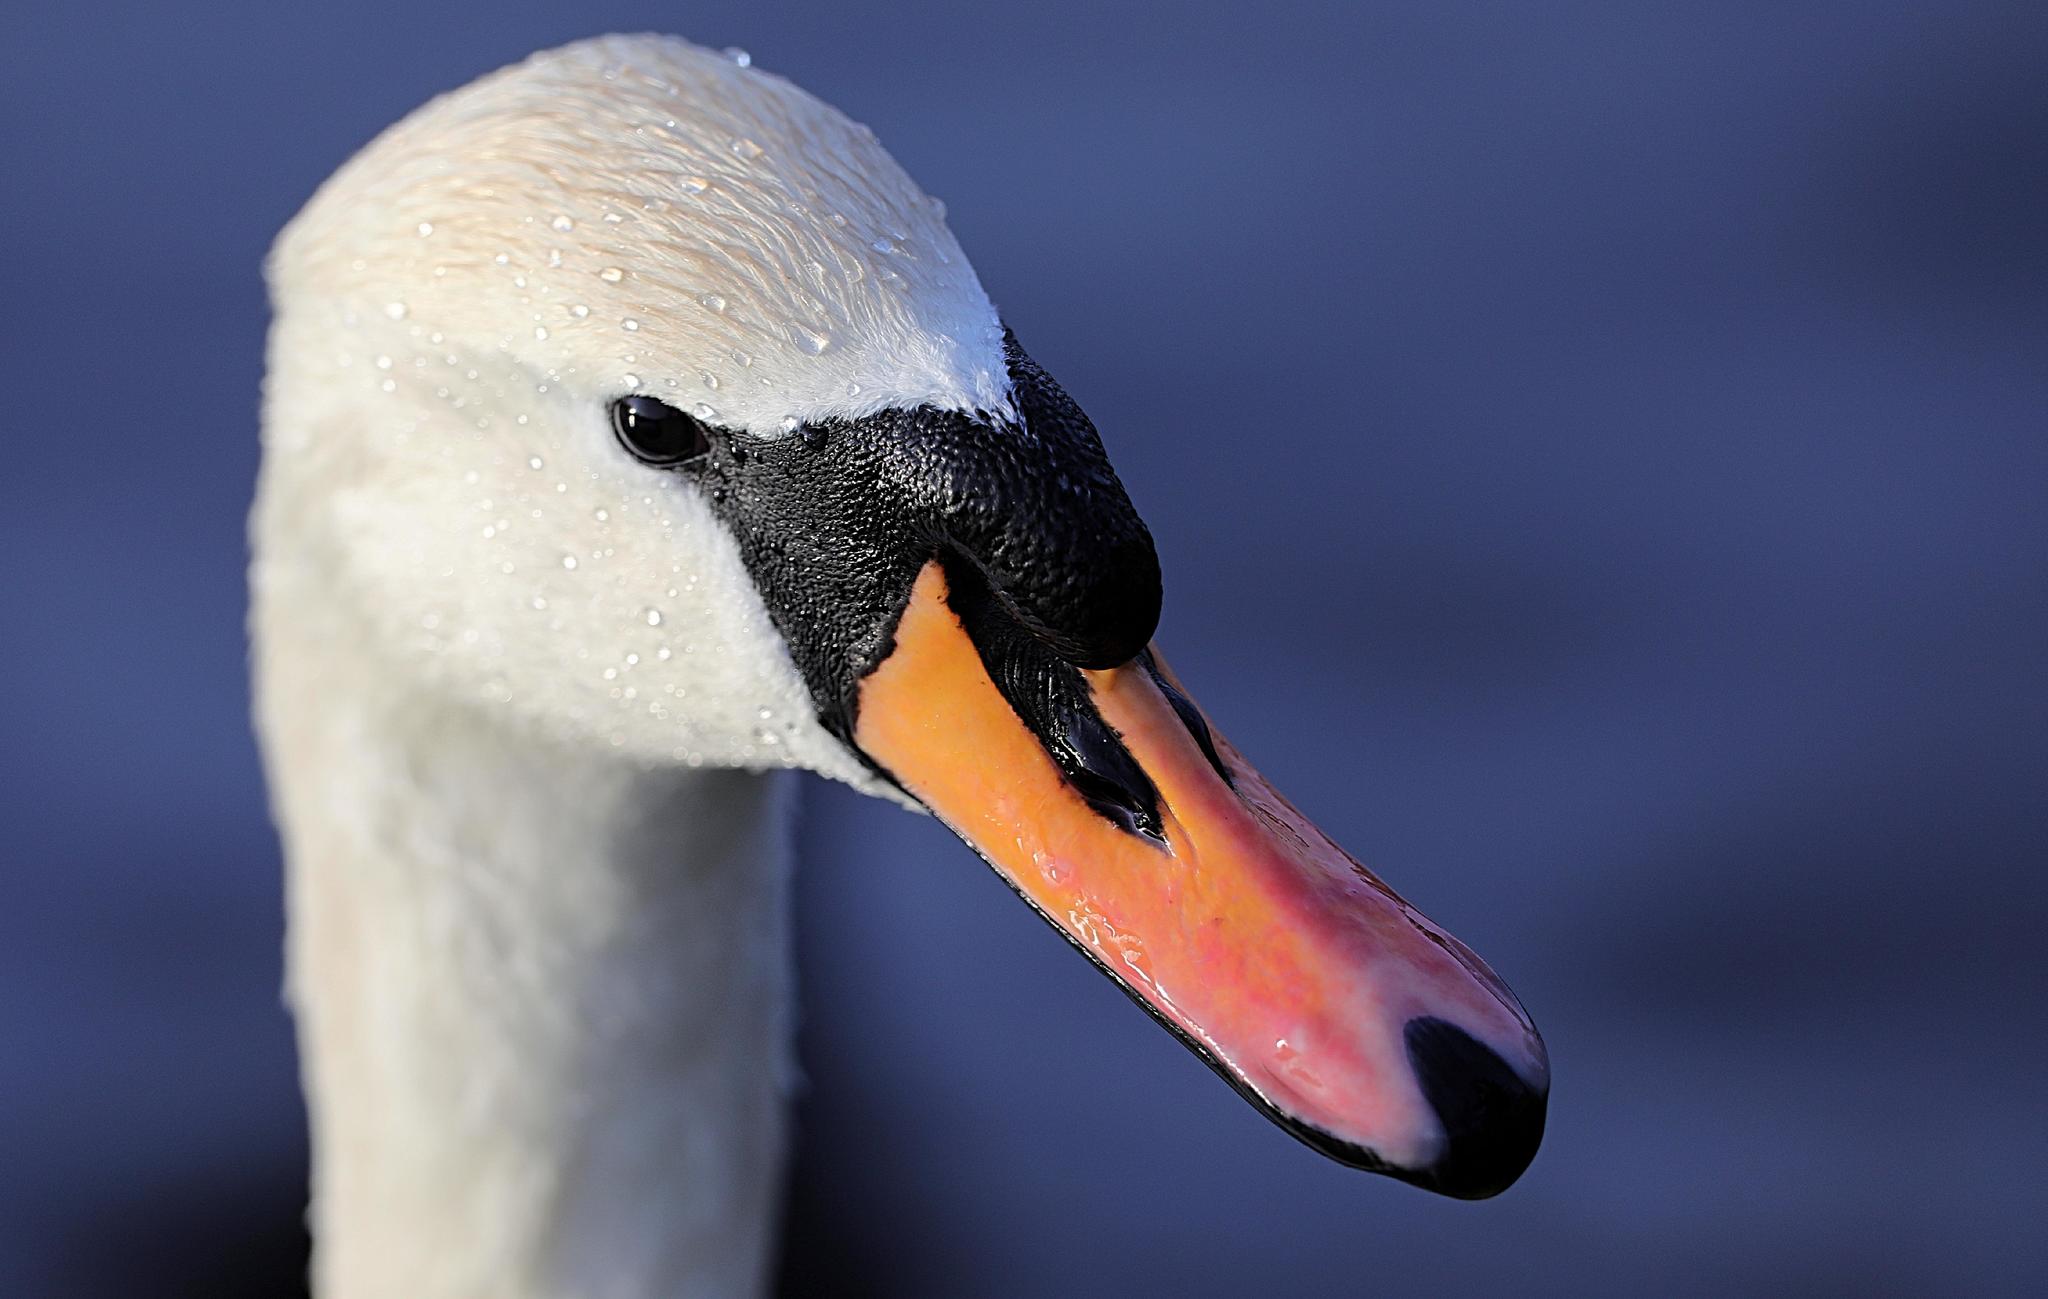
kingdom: Animalia
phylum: Chordata
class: Aves
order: Anseriformes
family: Anatidae
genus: Cygnus
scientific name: Cygnus olor
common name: Mute swan
